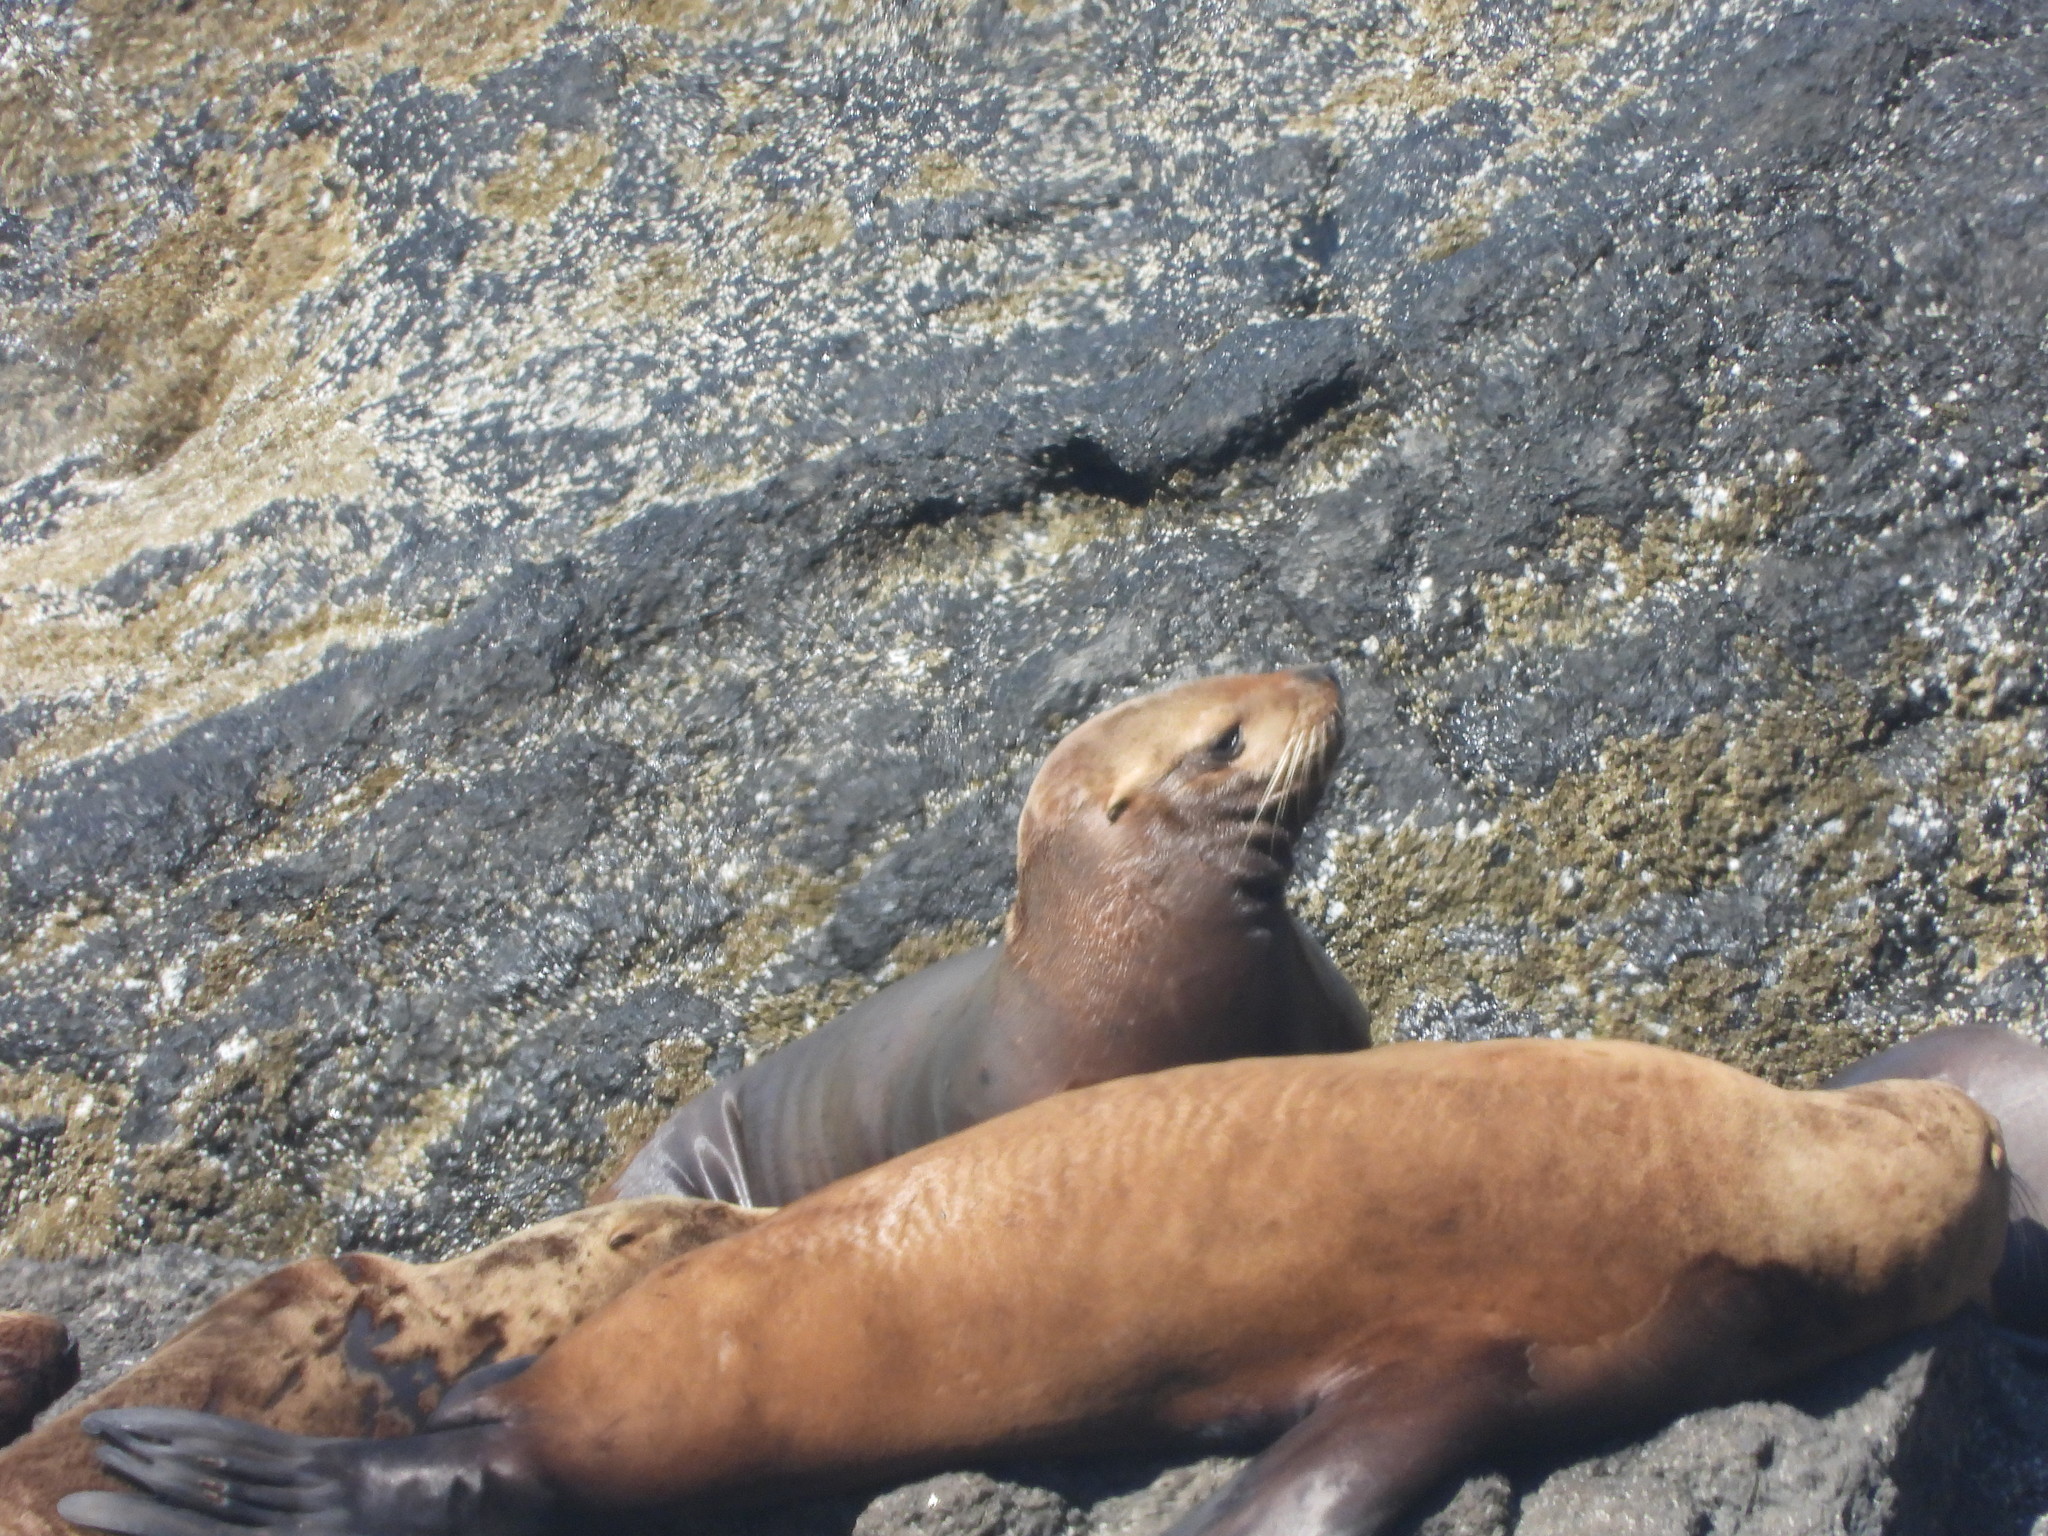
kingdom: Animalia
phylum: Chordata
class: Mammalia
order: Carnivora
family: Otariidae
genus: Eumetopias
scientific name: Eumetopias jubatus
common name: Steller sea lion
